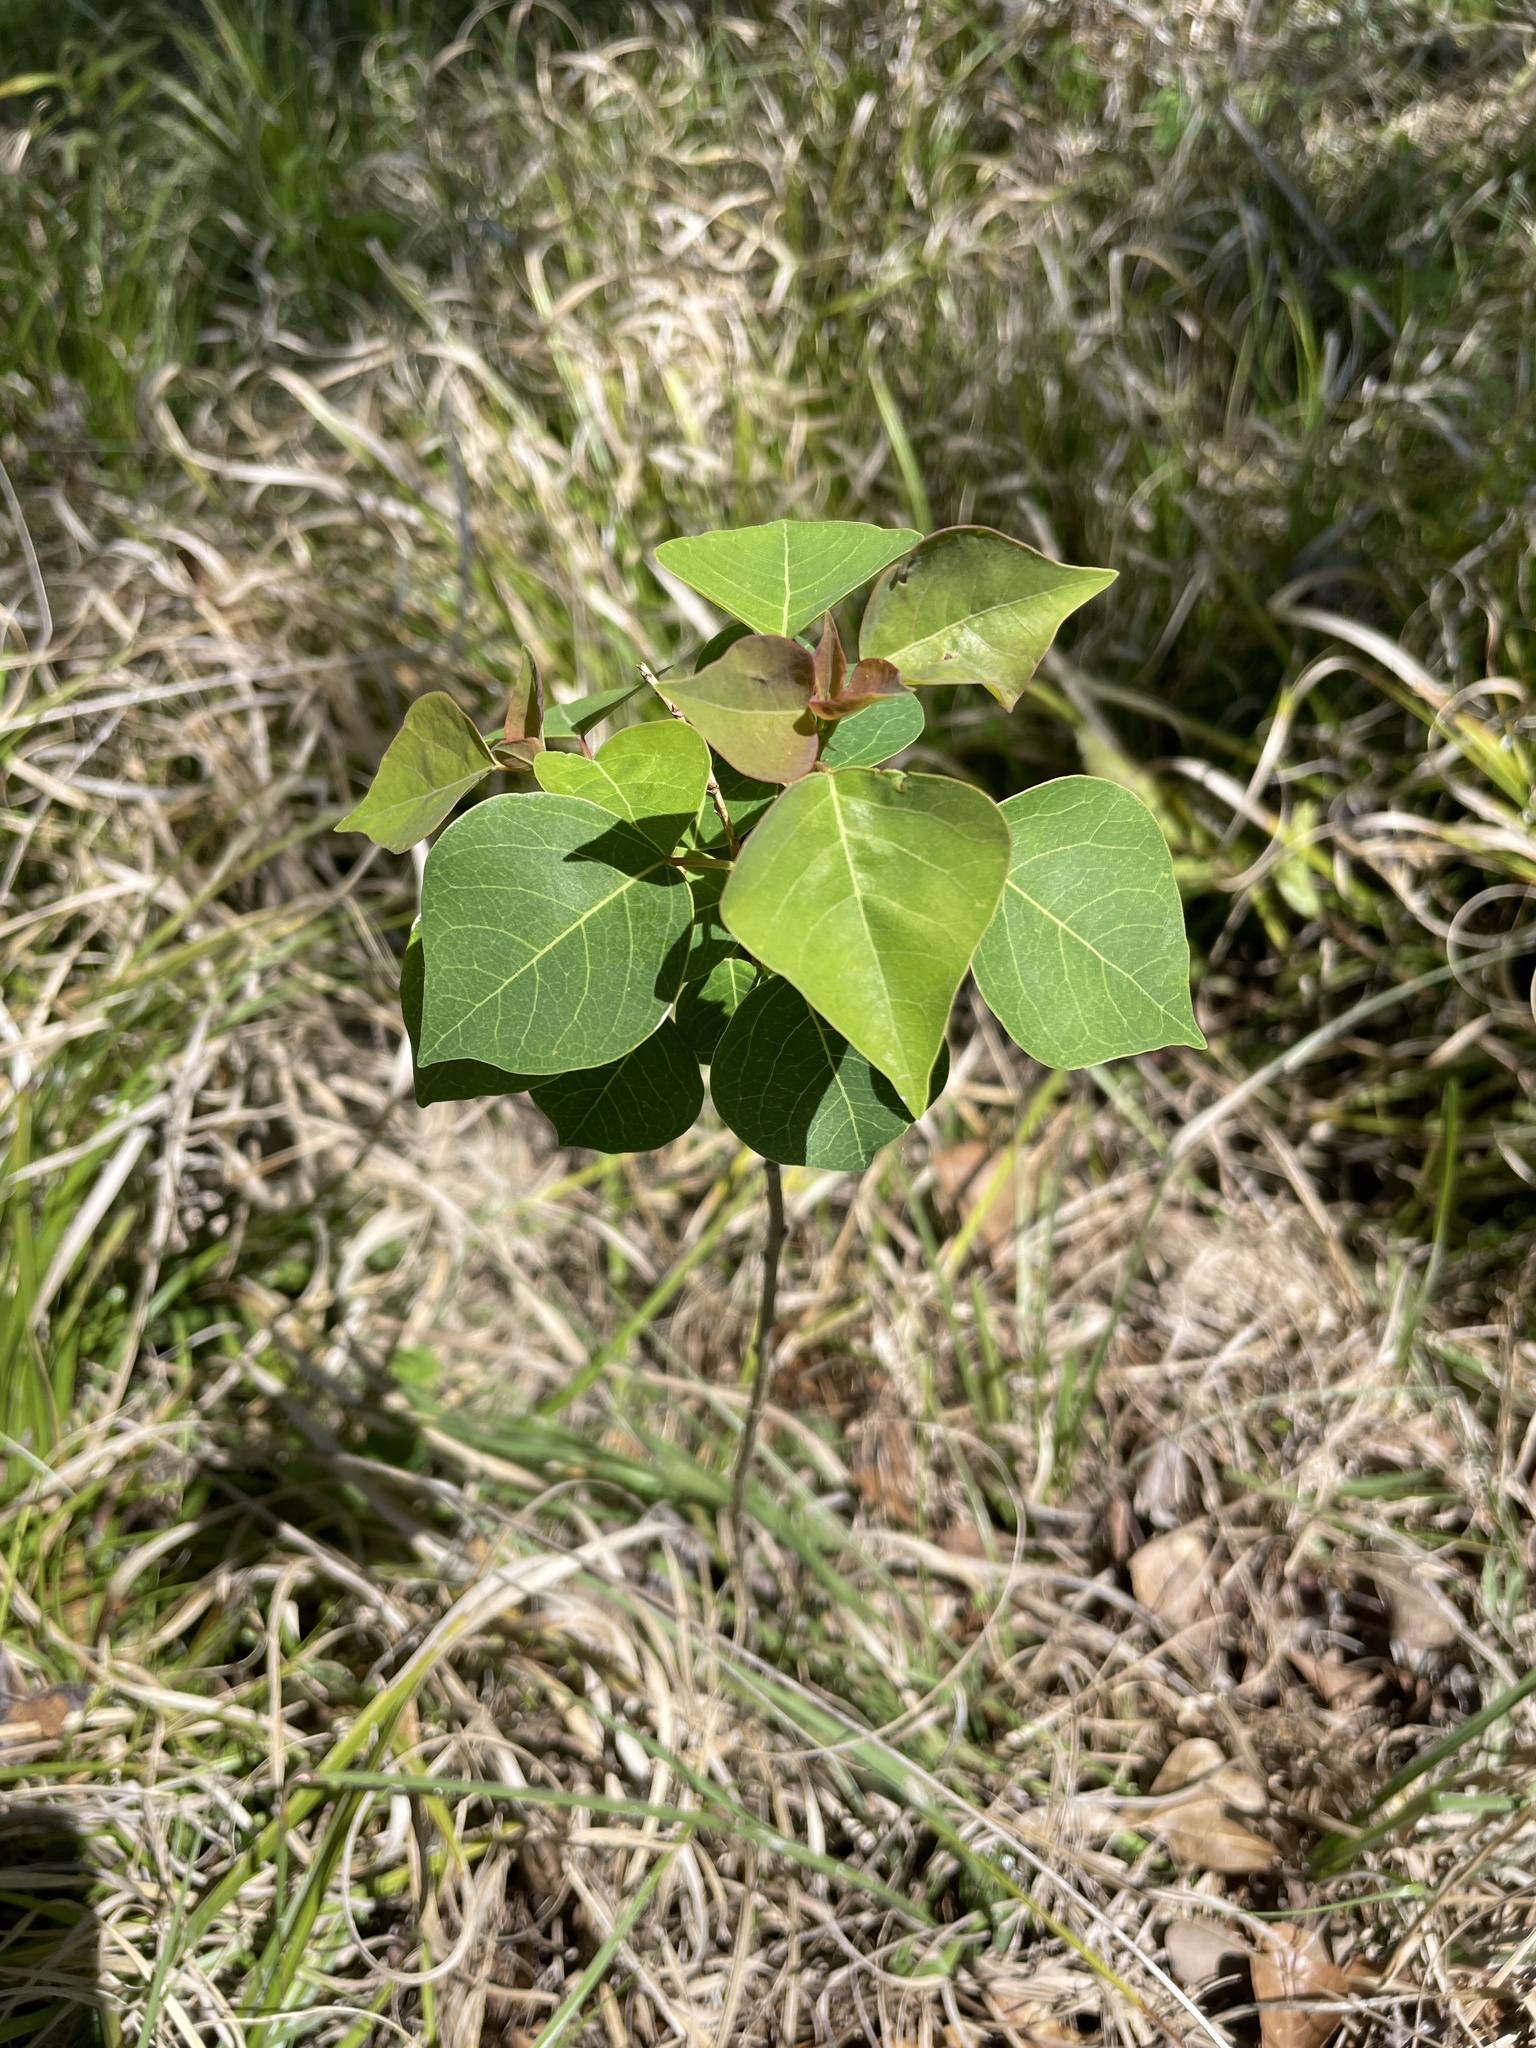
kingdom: Plantae
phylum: Tracheophyta
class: Magnoliopsida
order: Malpighiales
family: Euphorbiaceae
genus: Triadica
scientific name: Triadica sebifera
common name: Chinese tallow
